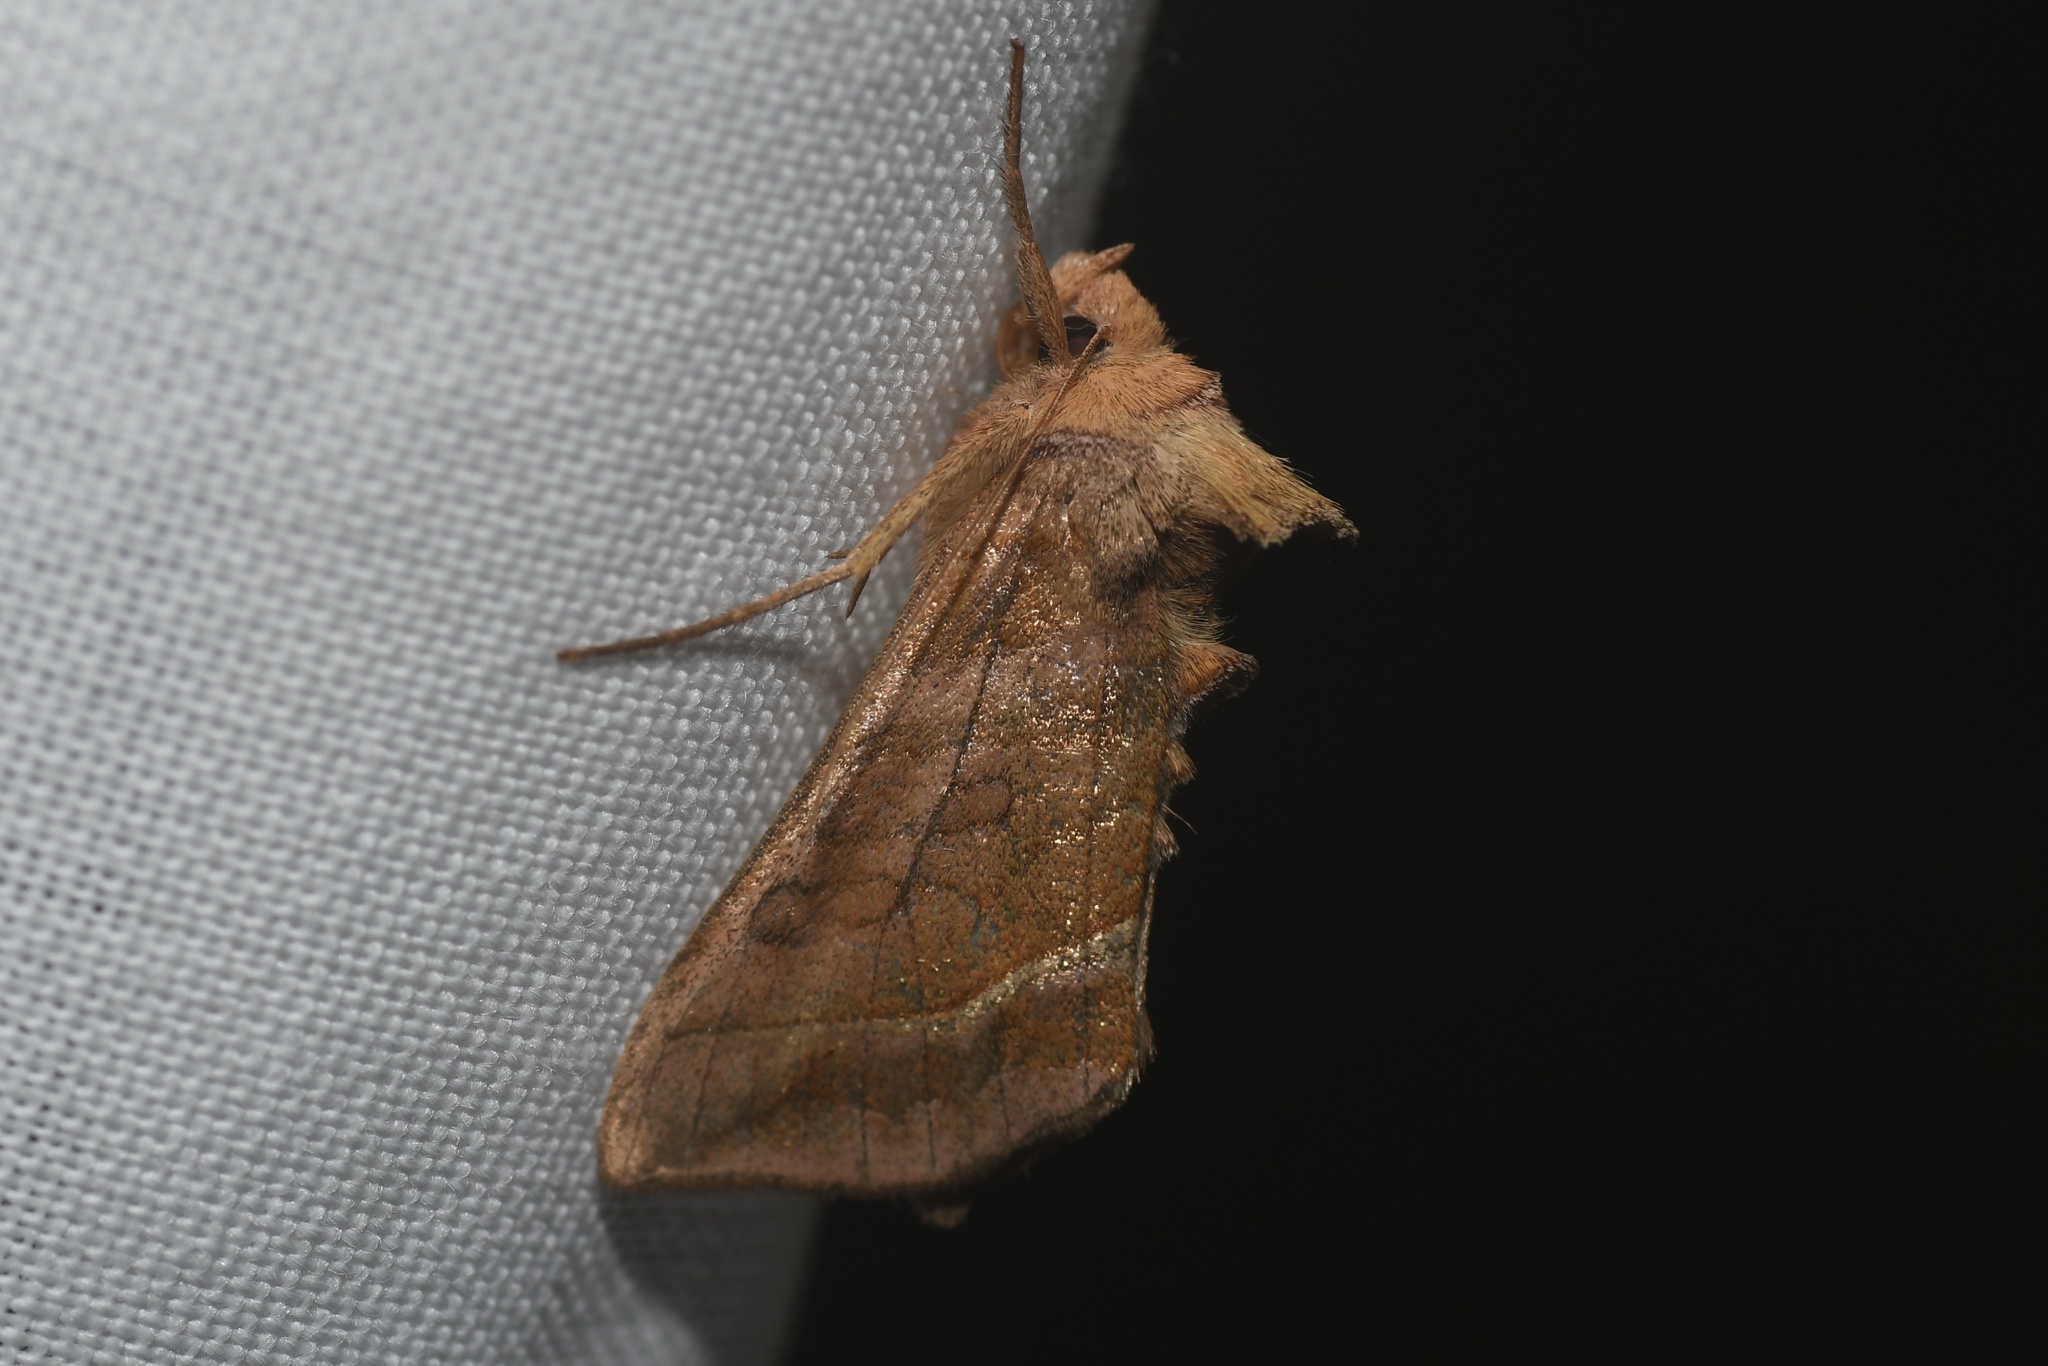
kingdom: Animalia
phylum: Arthropoda
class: Insecta
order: Lepidoptera
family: Noctuidae
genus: Diachrysia
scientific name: Diachrysia aereoides
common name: Dark-spotted looper moth
